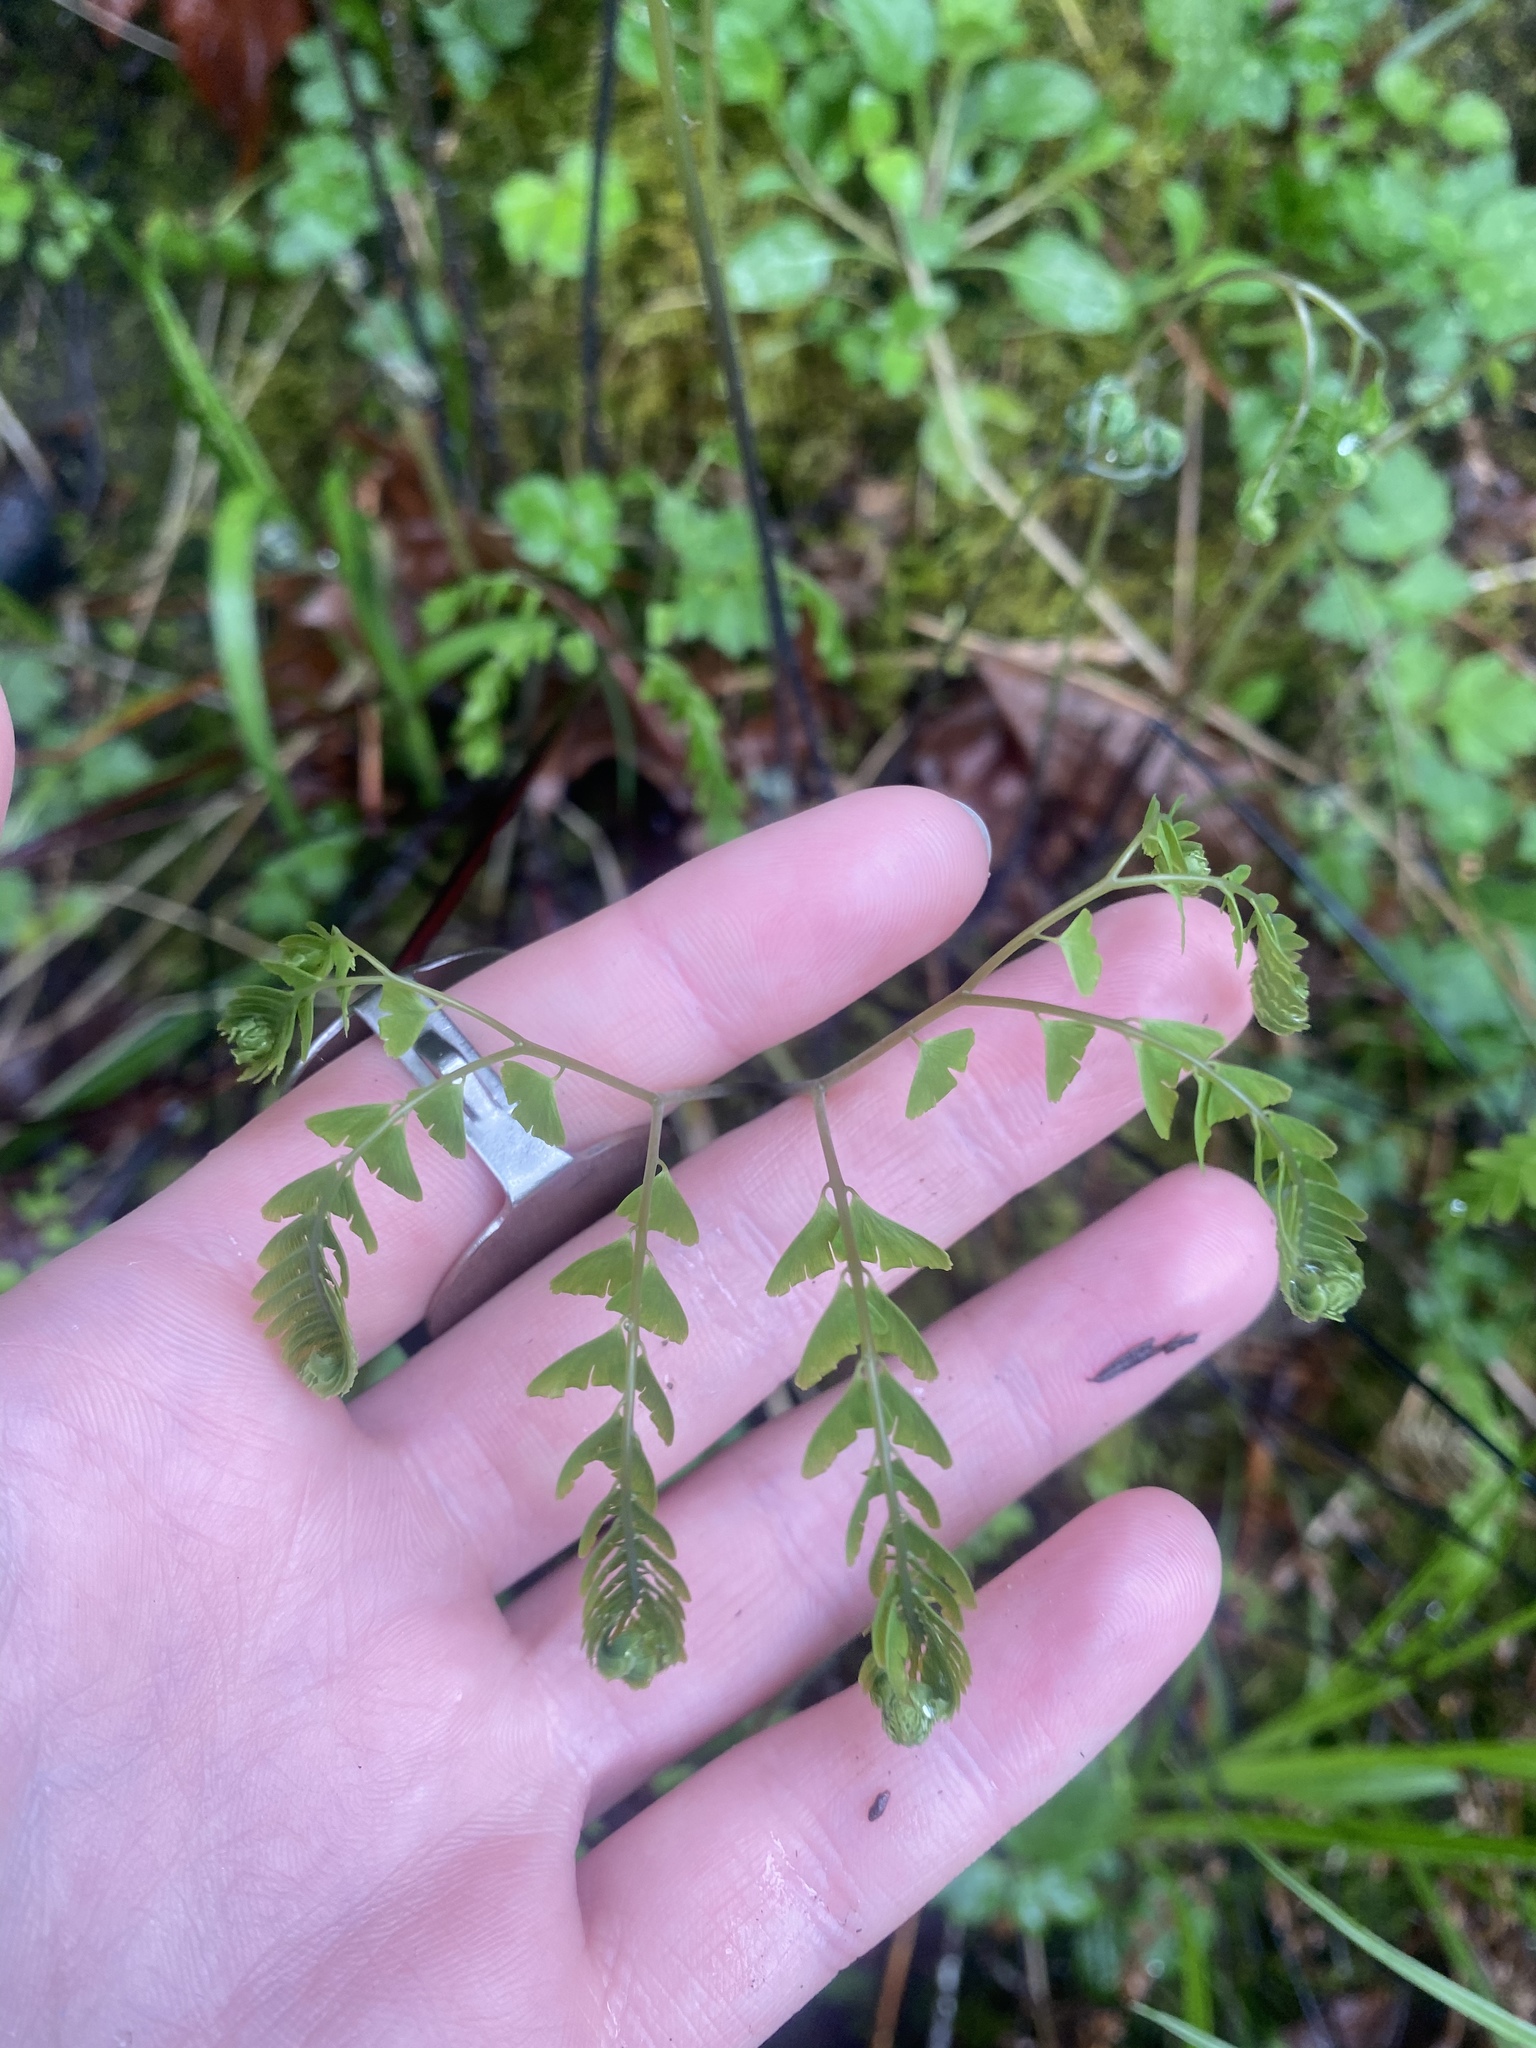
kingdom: Plantae
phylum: Tracheophyta
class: Polypodiopsida
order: Polypodiales
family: Pteridaceae
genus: Adiantum
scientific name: Adiantum aleuticum
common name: Aleutian maidenhair fern
